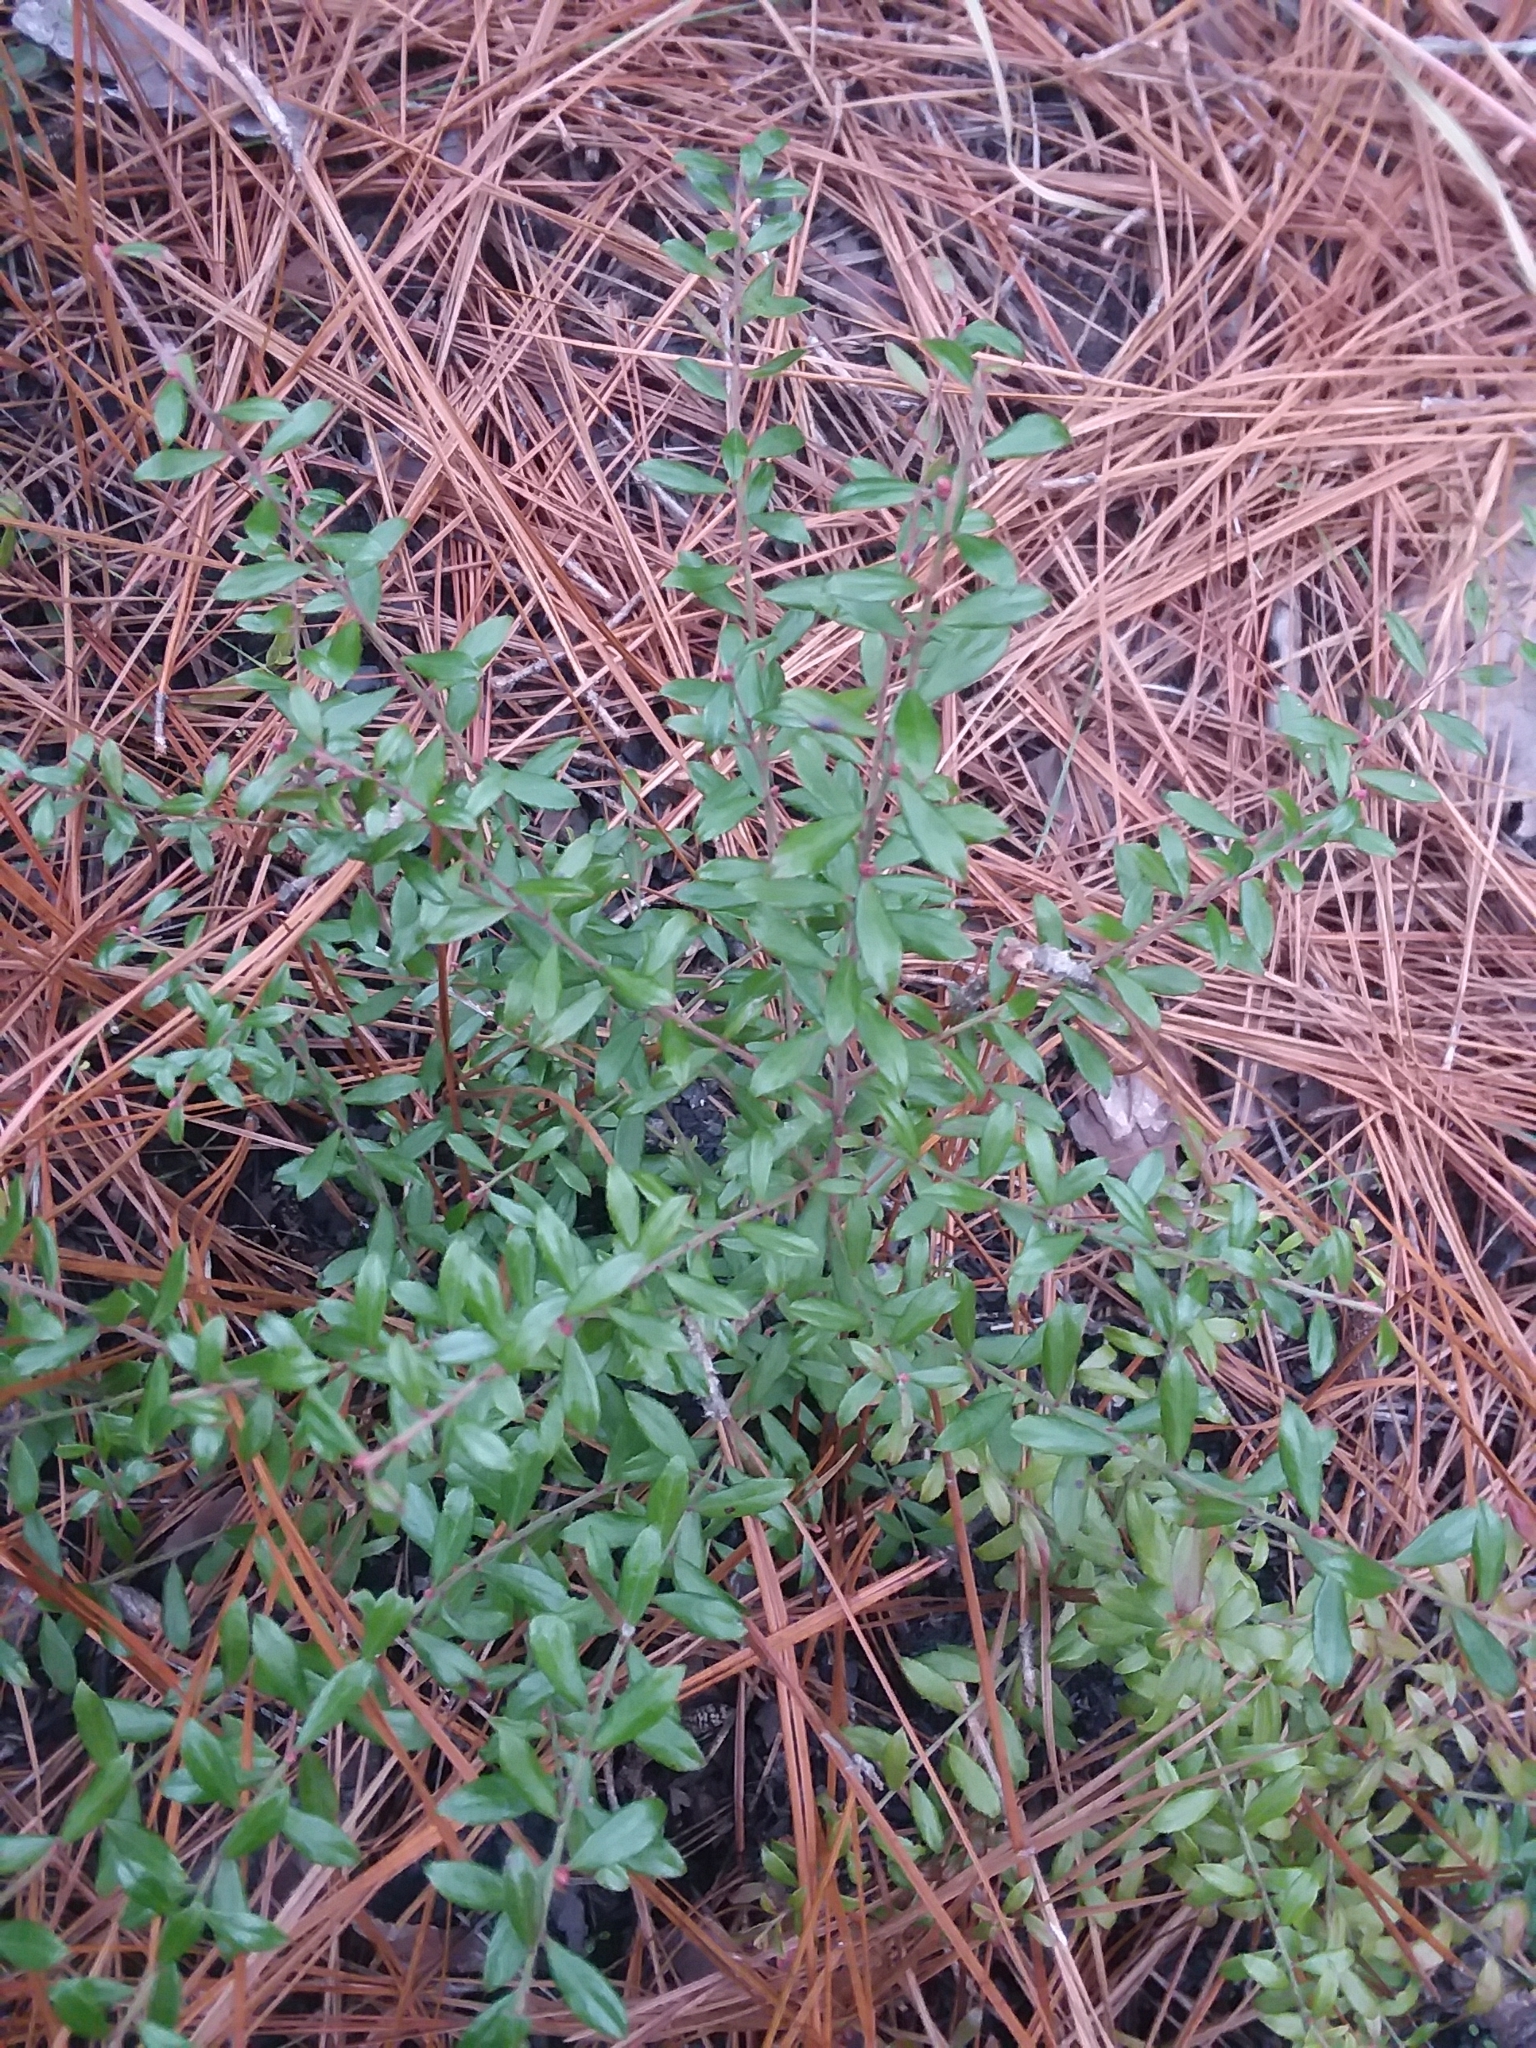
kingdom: Plantae
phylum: Tracheophyta
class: Magnoliopsida
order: Ericales
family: Ericaceae
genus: Vaccinium
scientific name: Vaccinium darrowii
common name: Darrow's blueberry
